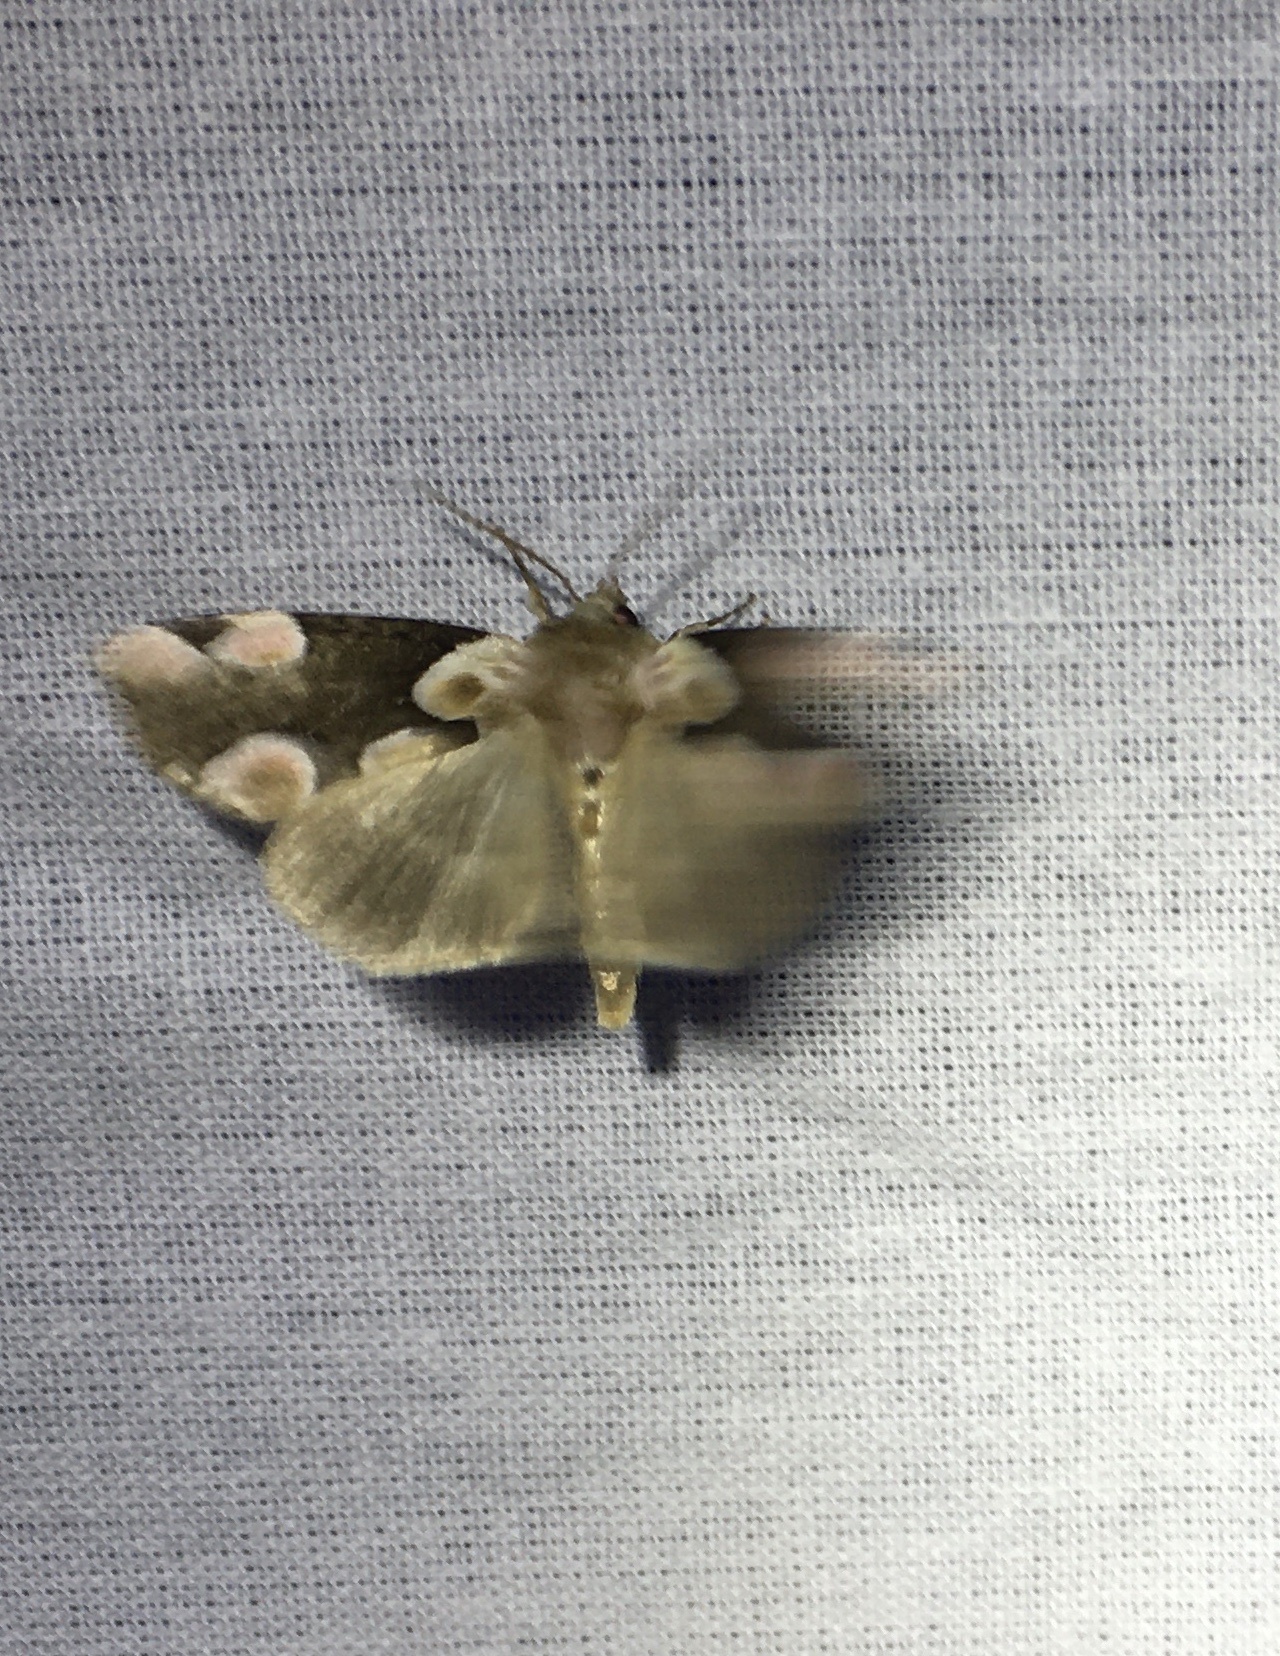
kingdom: Animalia
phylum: Arthropoda
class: Insecta
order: Lepidoptera
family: Drepanidae
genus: Thyatira
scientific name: Thyatira batis
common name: Peach blossom
